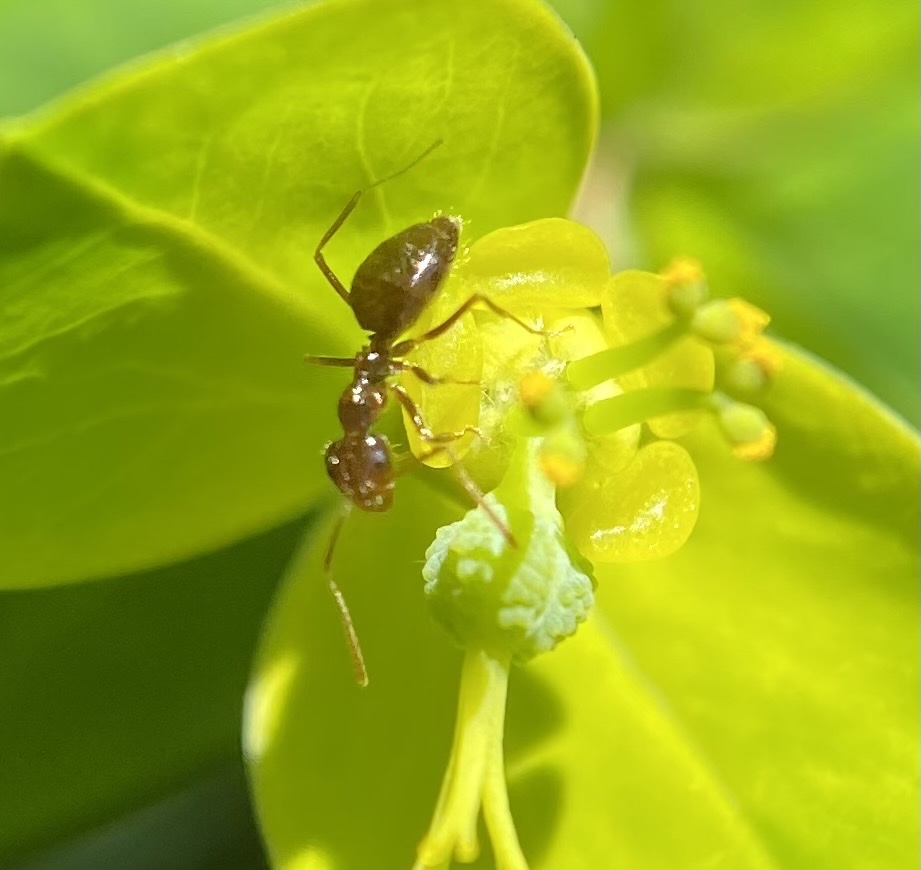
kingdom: Animalia
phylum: Arthropoda
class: Insecta
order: Hymenoptera
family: Formicidae
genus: Prenolepis
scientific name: Prenolepis imparis
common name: Small honey ant
